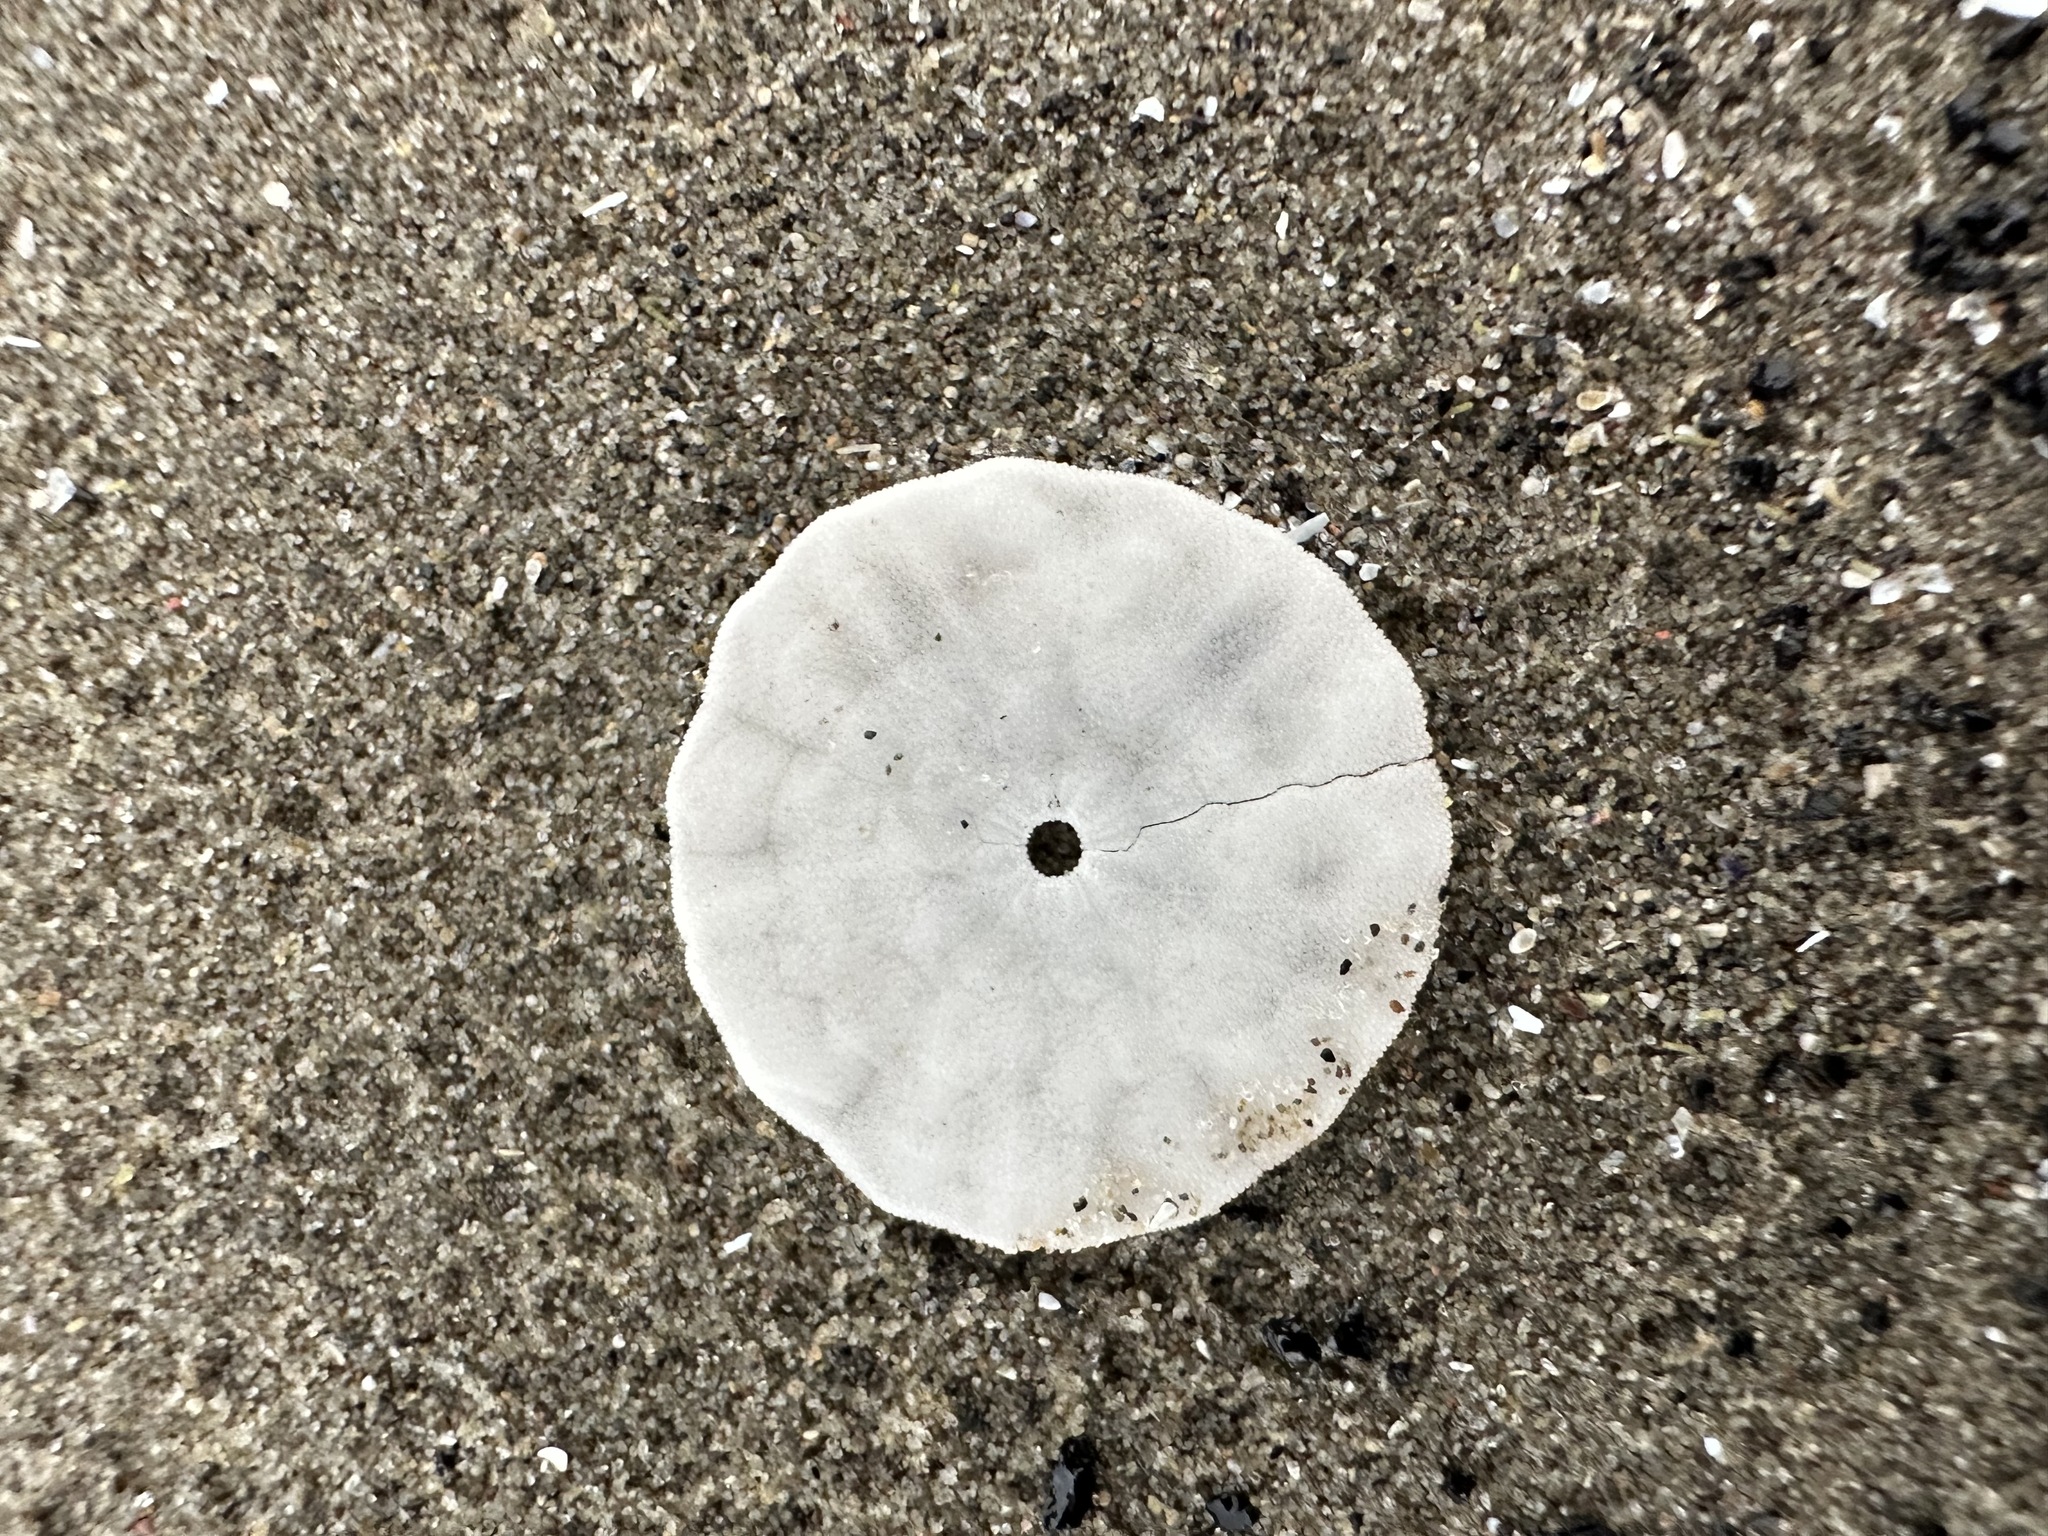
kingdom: Animalia
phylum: Echinodermata
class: Echinoidea
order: Echinolampadacea
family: Echinarachniidae
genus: Echinarachnius
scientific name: Echinarachnius parma
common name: Common sand dollar
